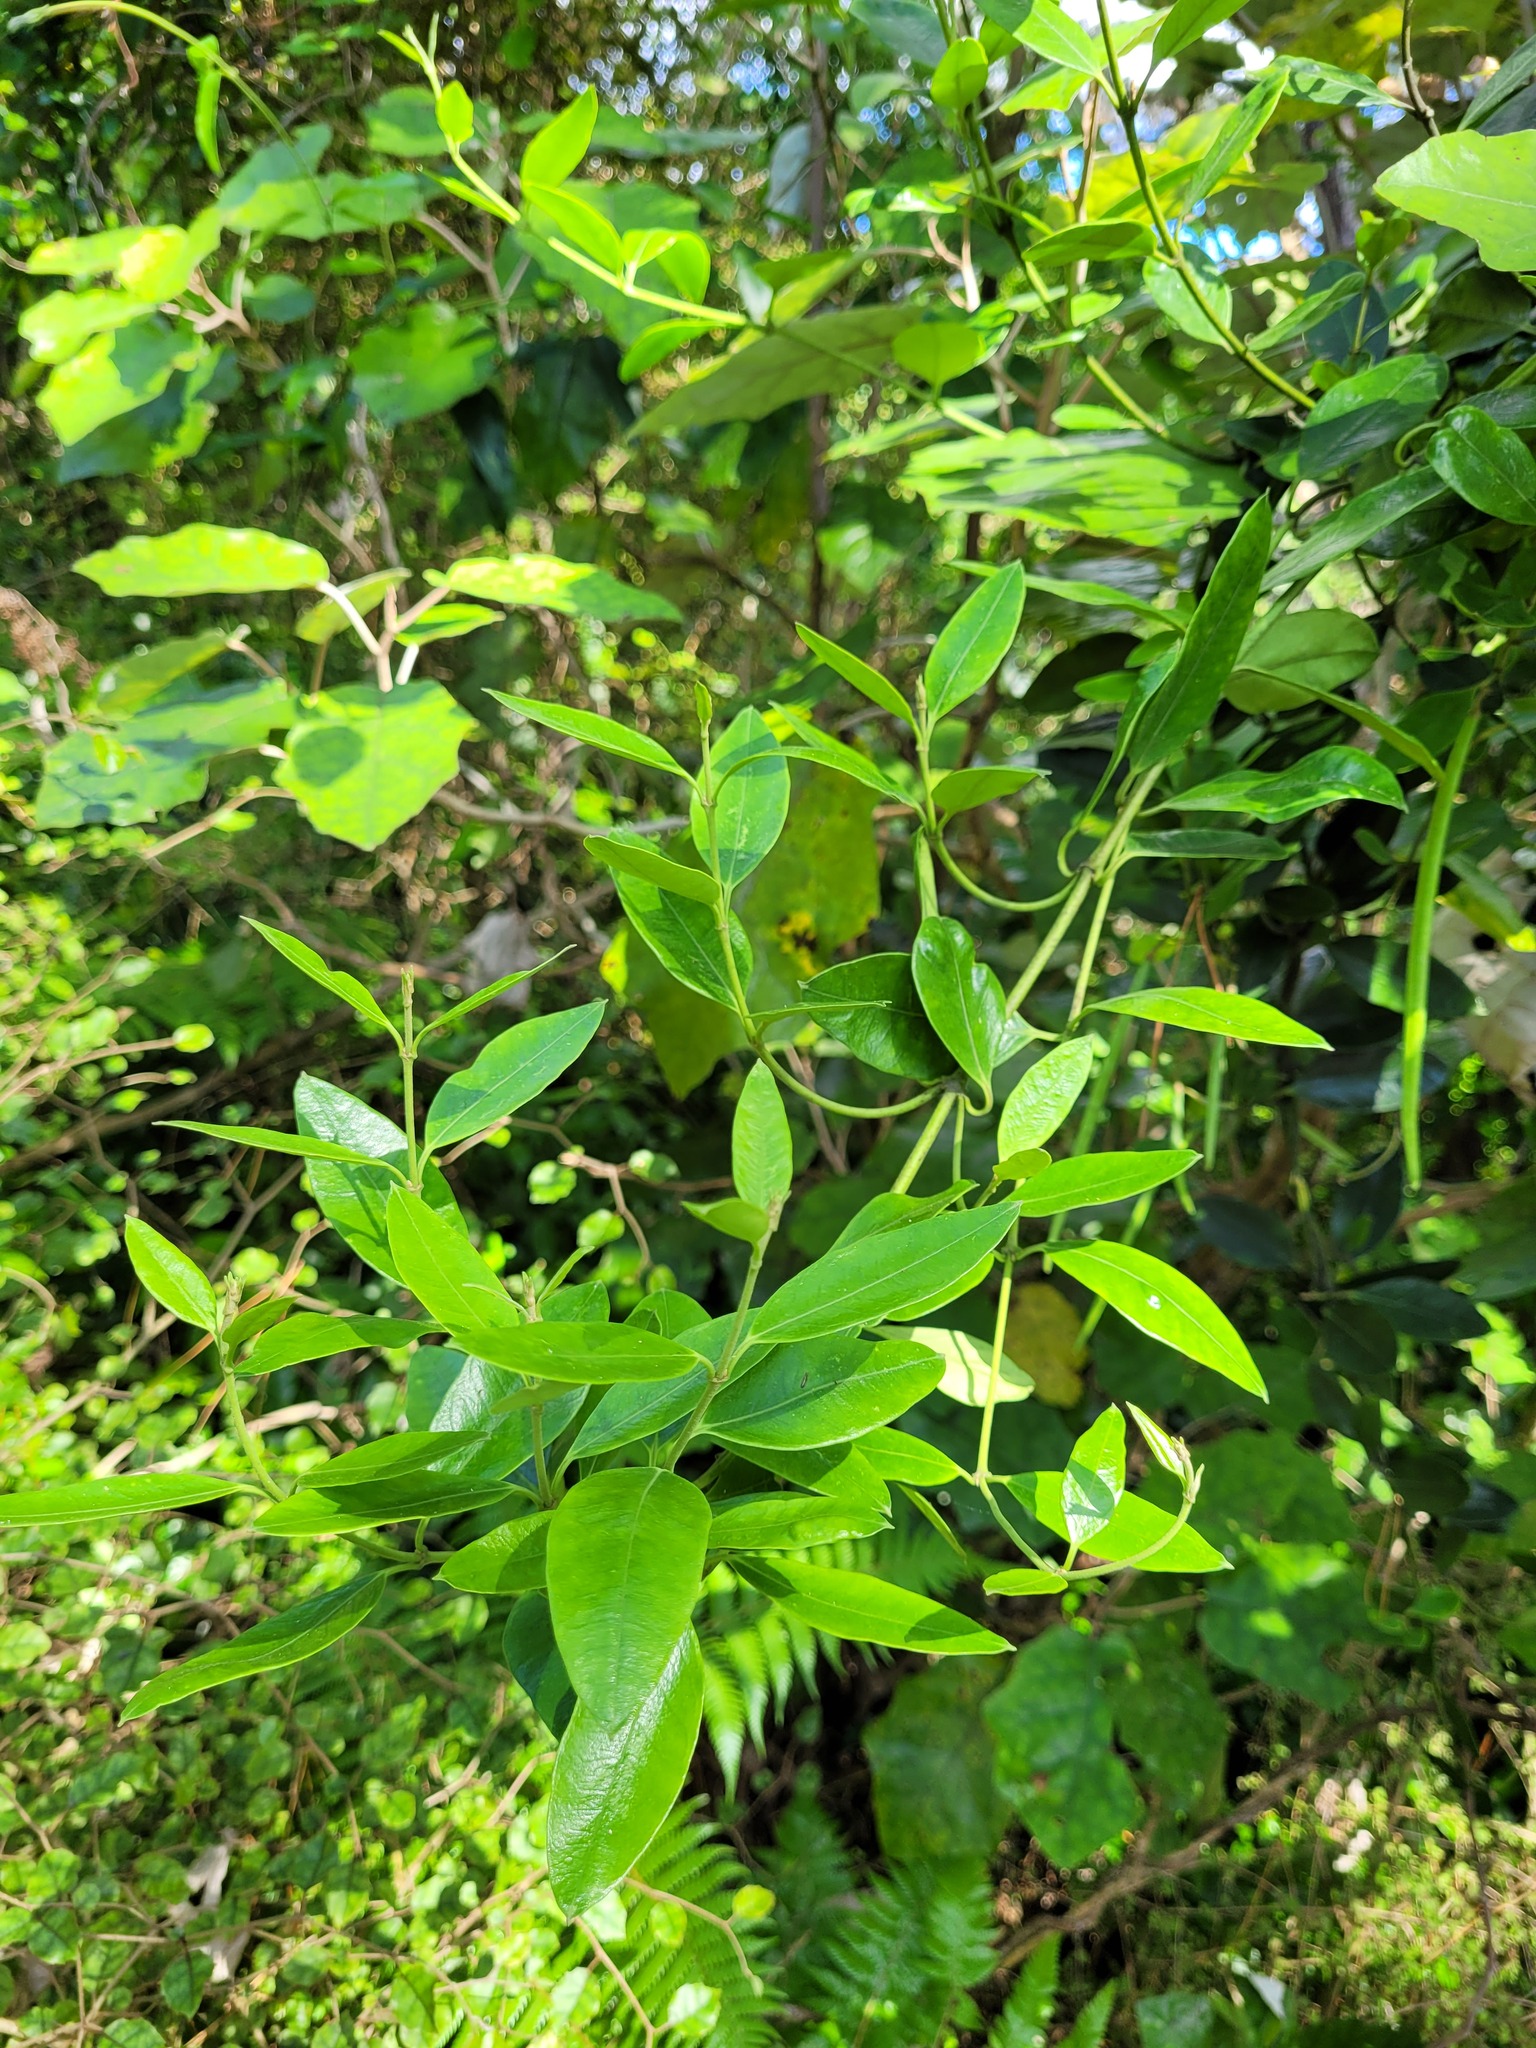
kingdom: Plantae
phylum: Tracheophyta
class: Magnoliopsida
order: Gentianales
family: Apocynaceae
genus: Parsonsia
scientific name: Parsonsia heterophylla
